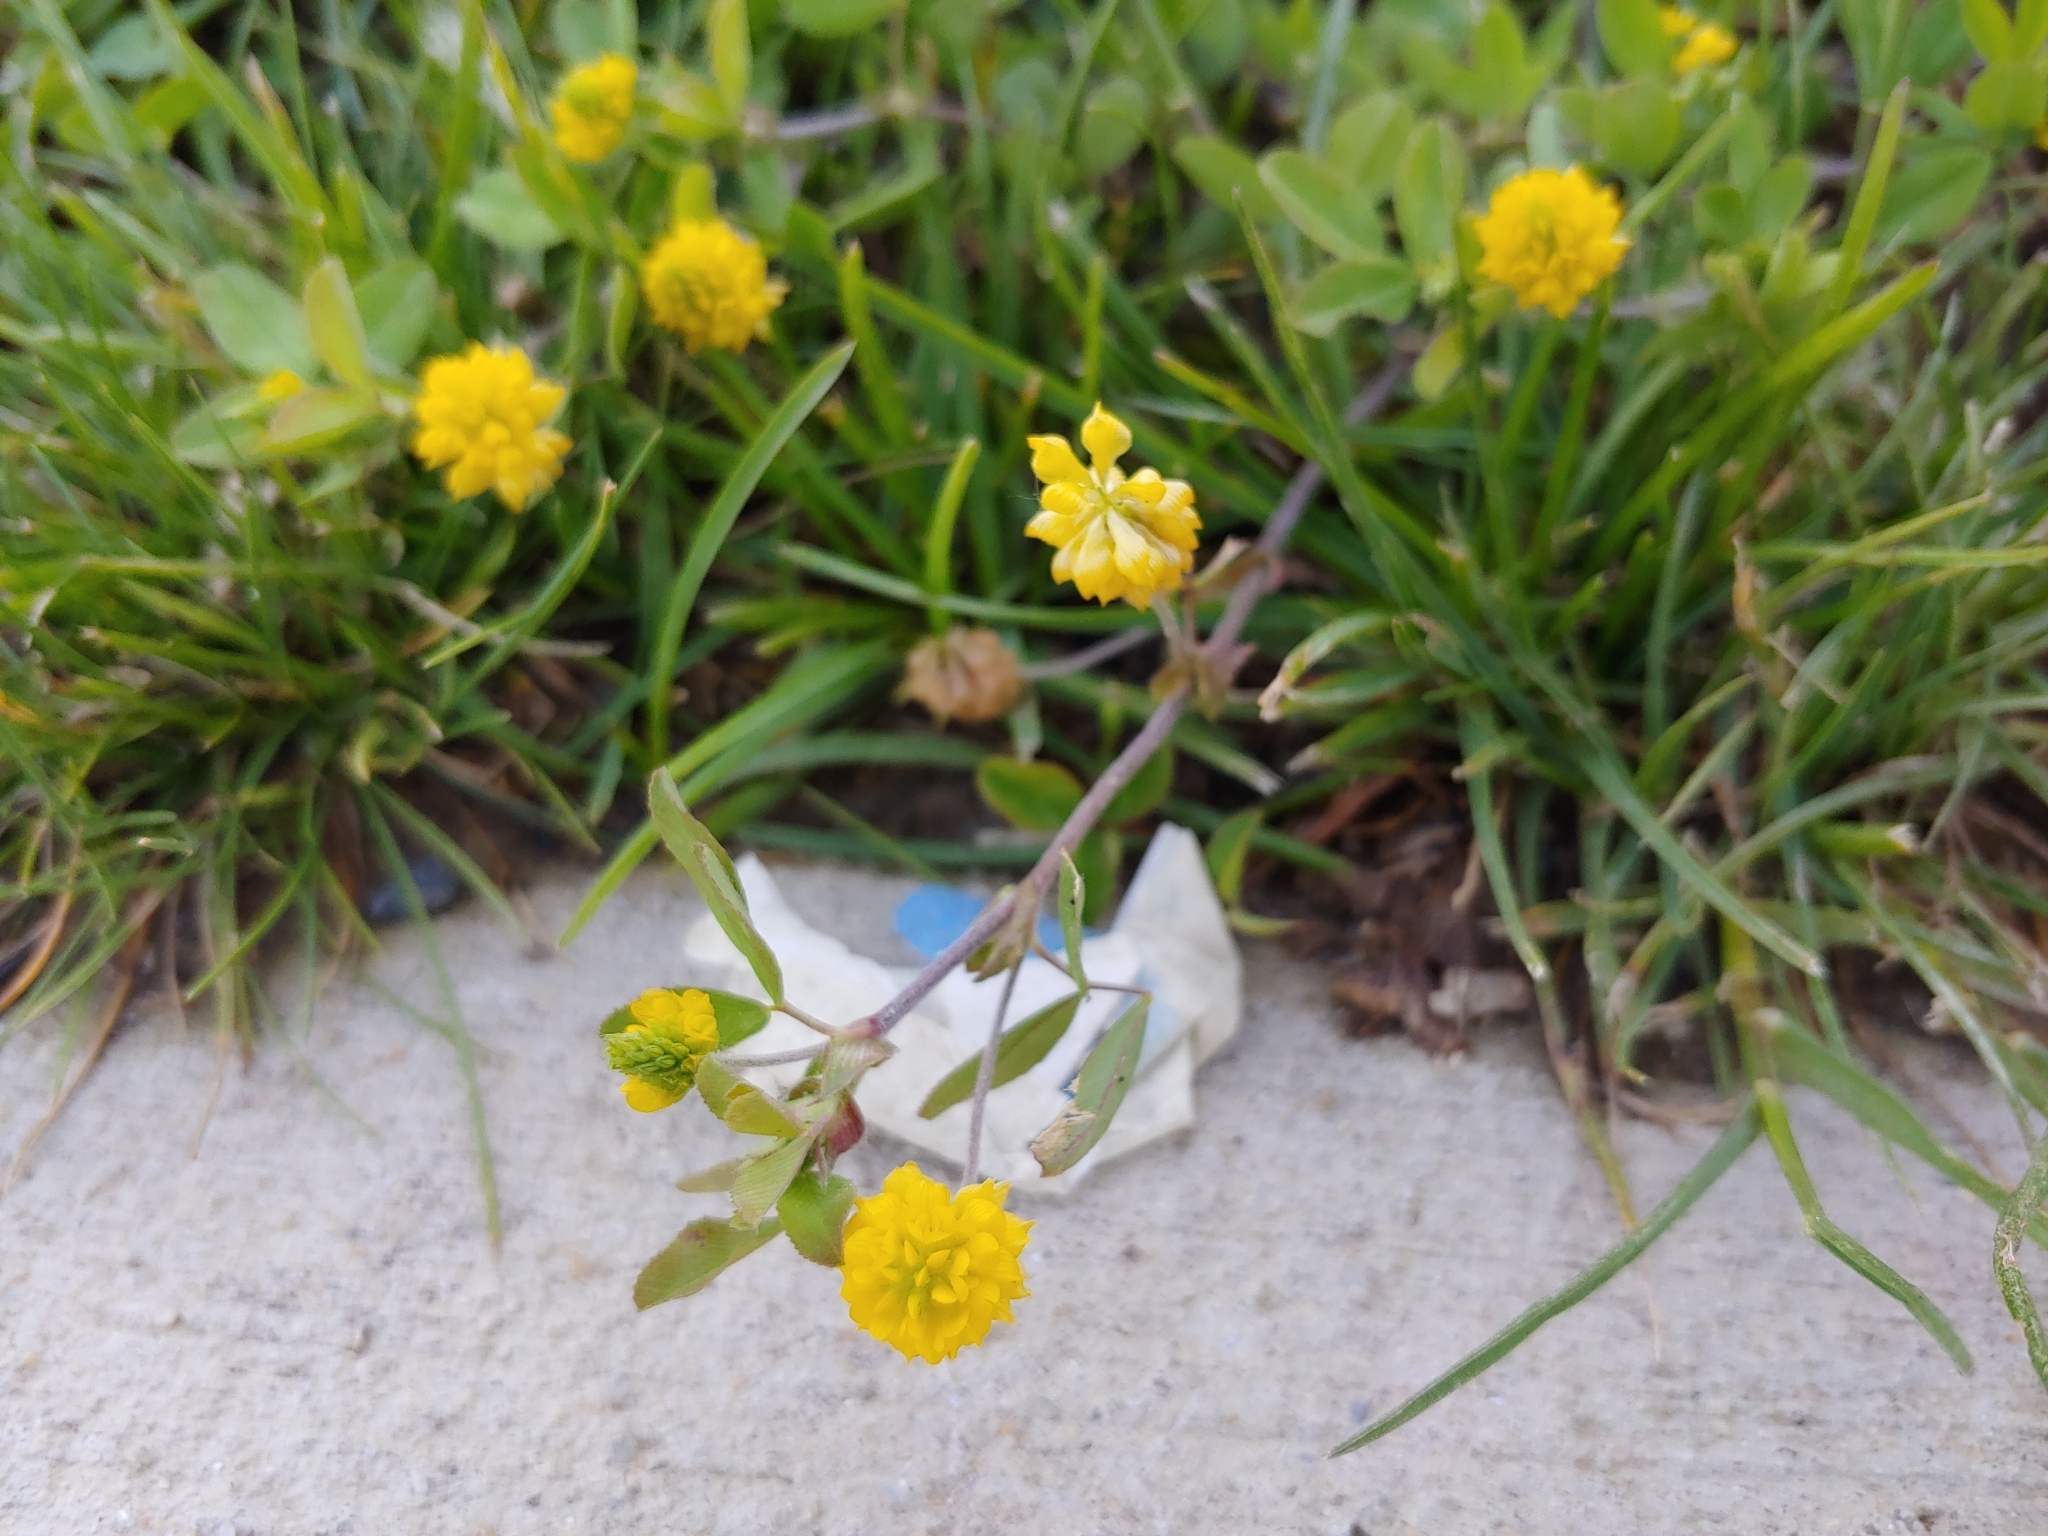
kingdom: Plantae
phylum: Tracheophyta
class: Magnoliopsida
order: Fabales
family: Fabaceae
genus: Trifolium
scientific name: Trifolium campestre
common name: Field clover
